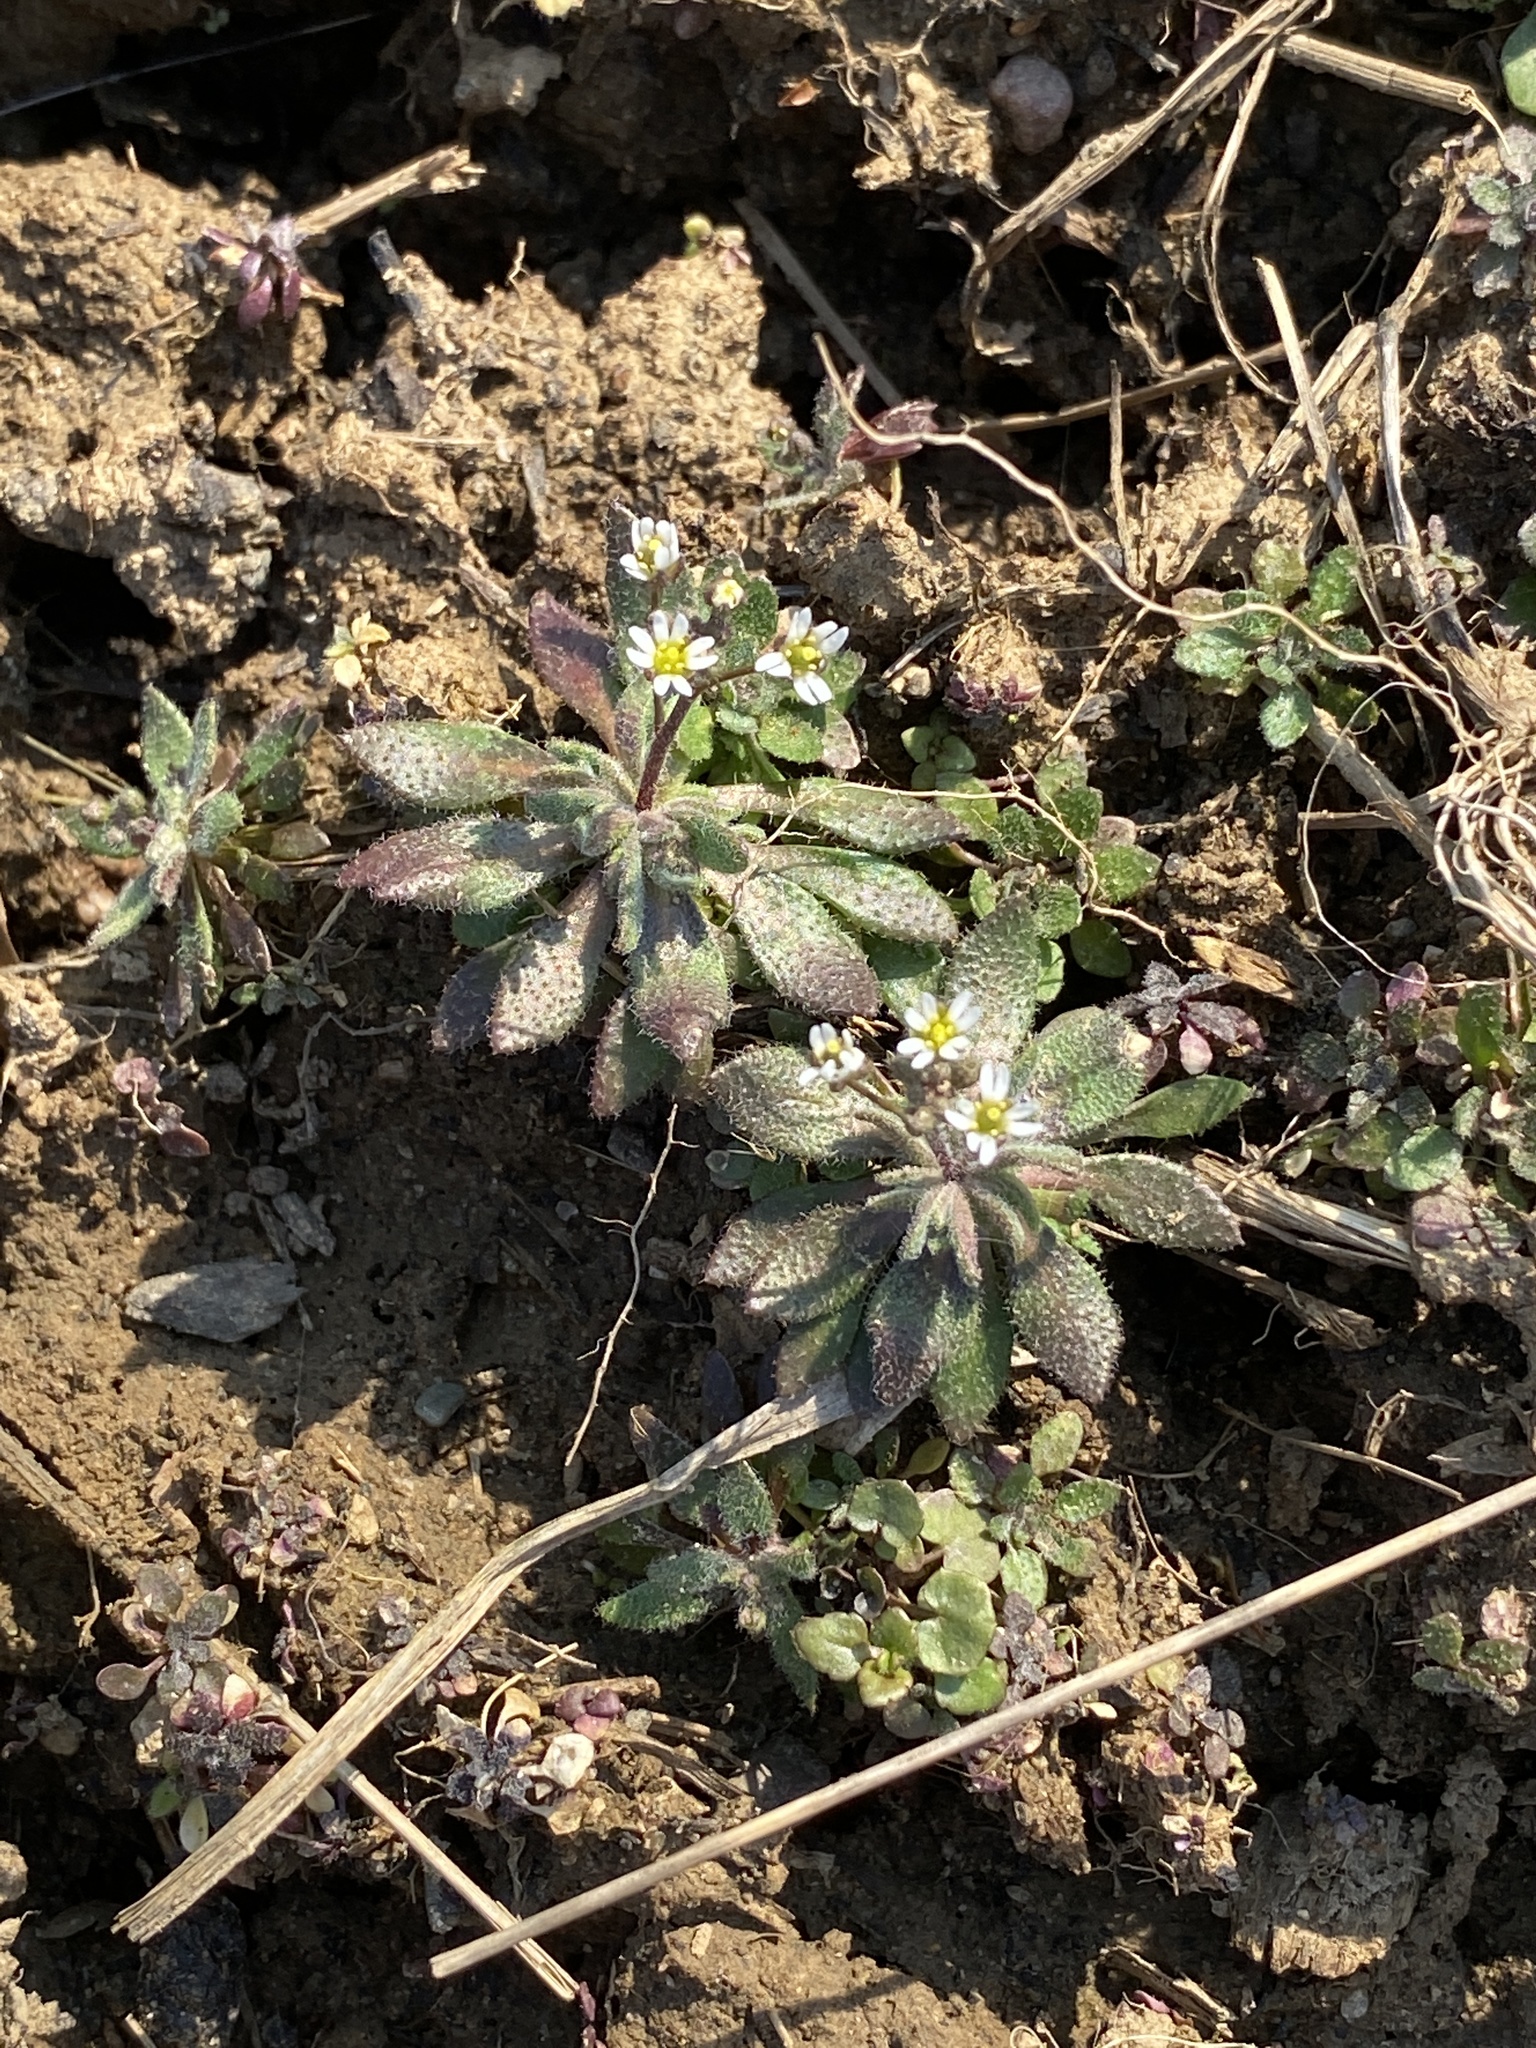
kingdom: Plantae
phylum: Tracheophyta
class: Magnoliopsida
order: Brassicales
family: Brassicaceae
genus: Draba
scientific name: Draba verna
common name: Spring draba
